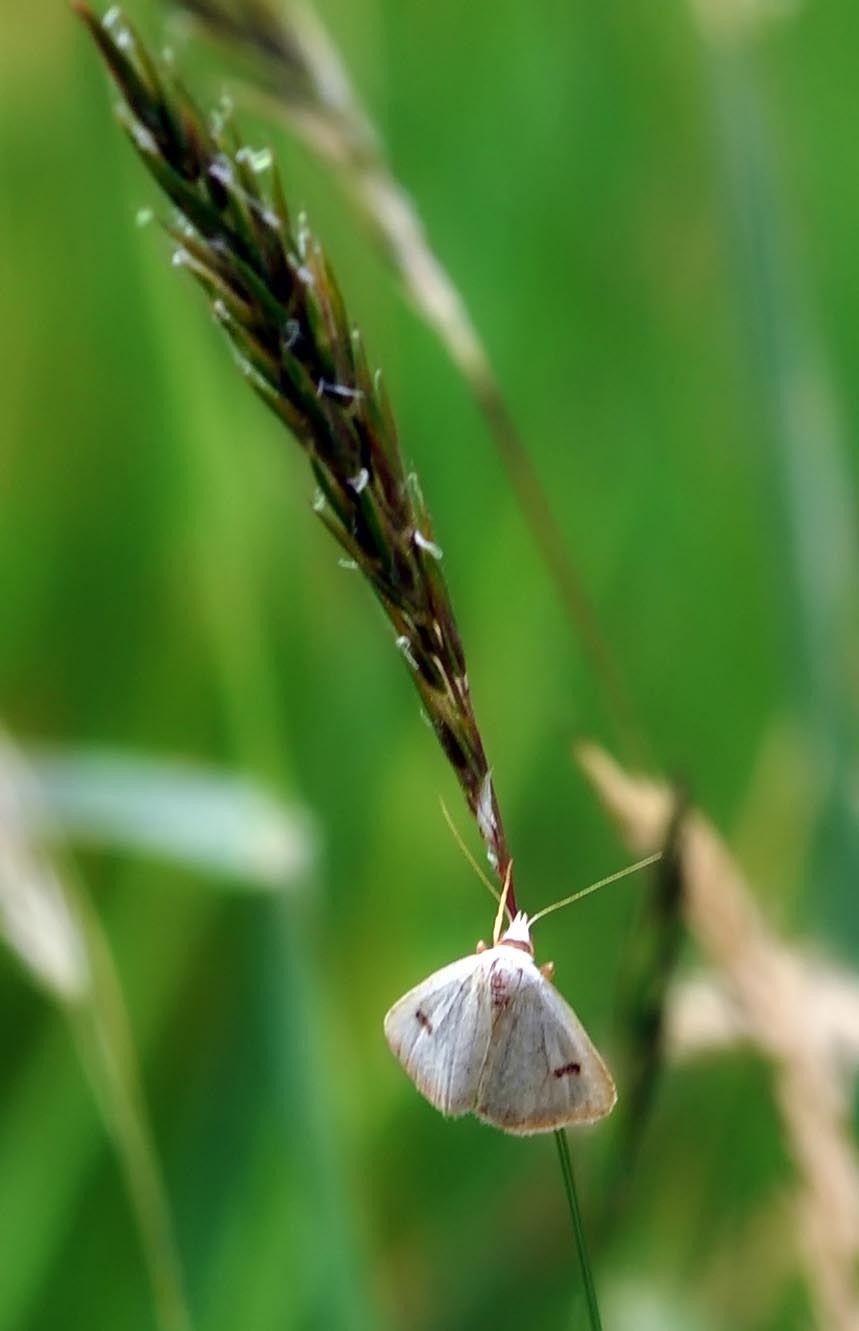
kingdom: Animalia
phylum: Arthropoda
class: Insecta
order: Lepidoptera
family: Erebidae
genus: Rivula
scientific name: Rivula sericealis
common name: Straw dot
